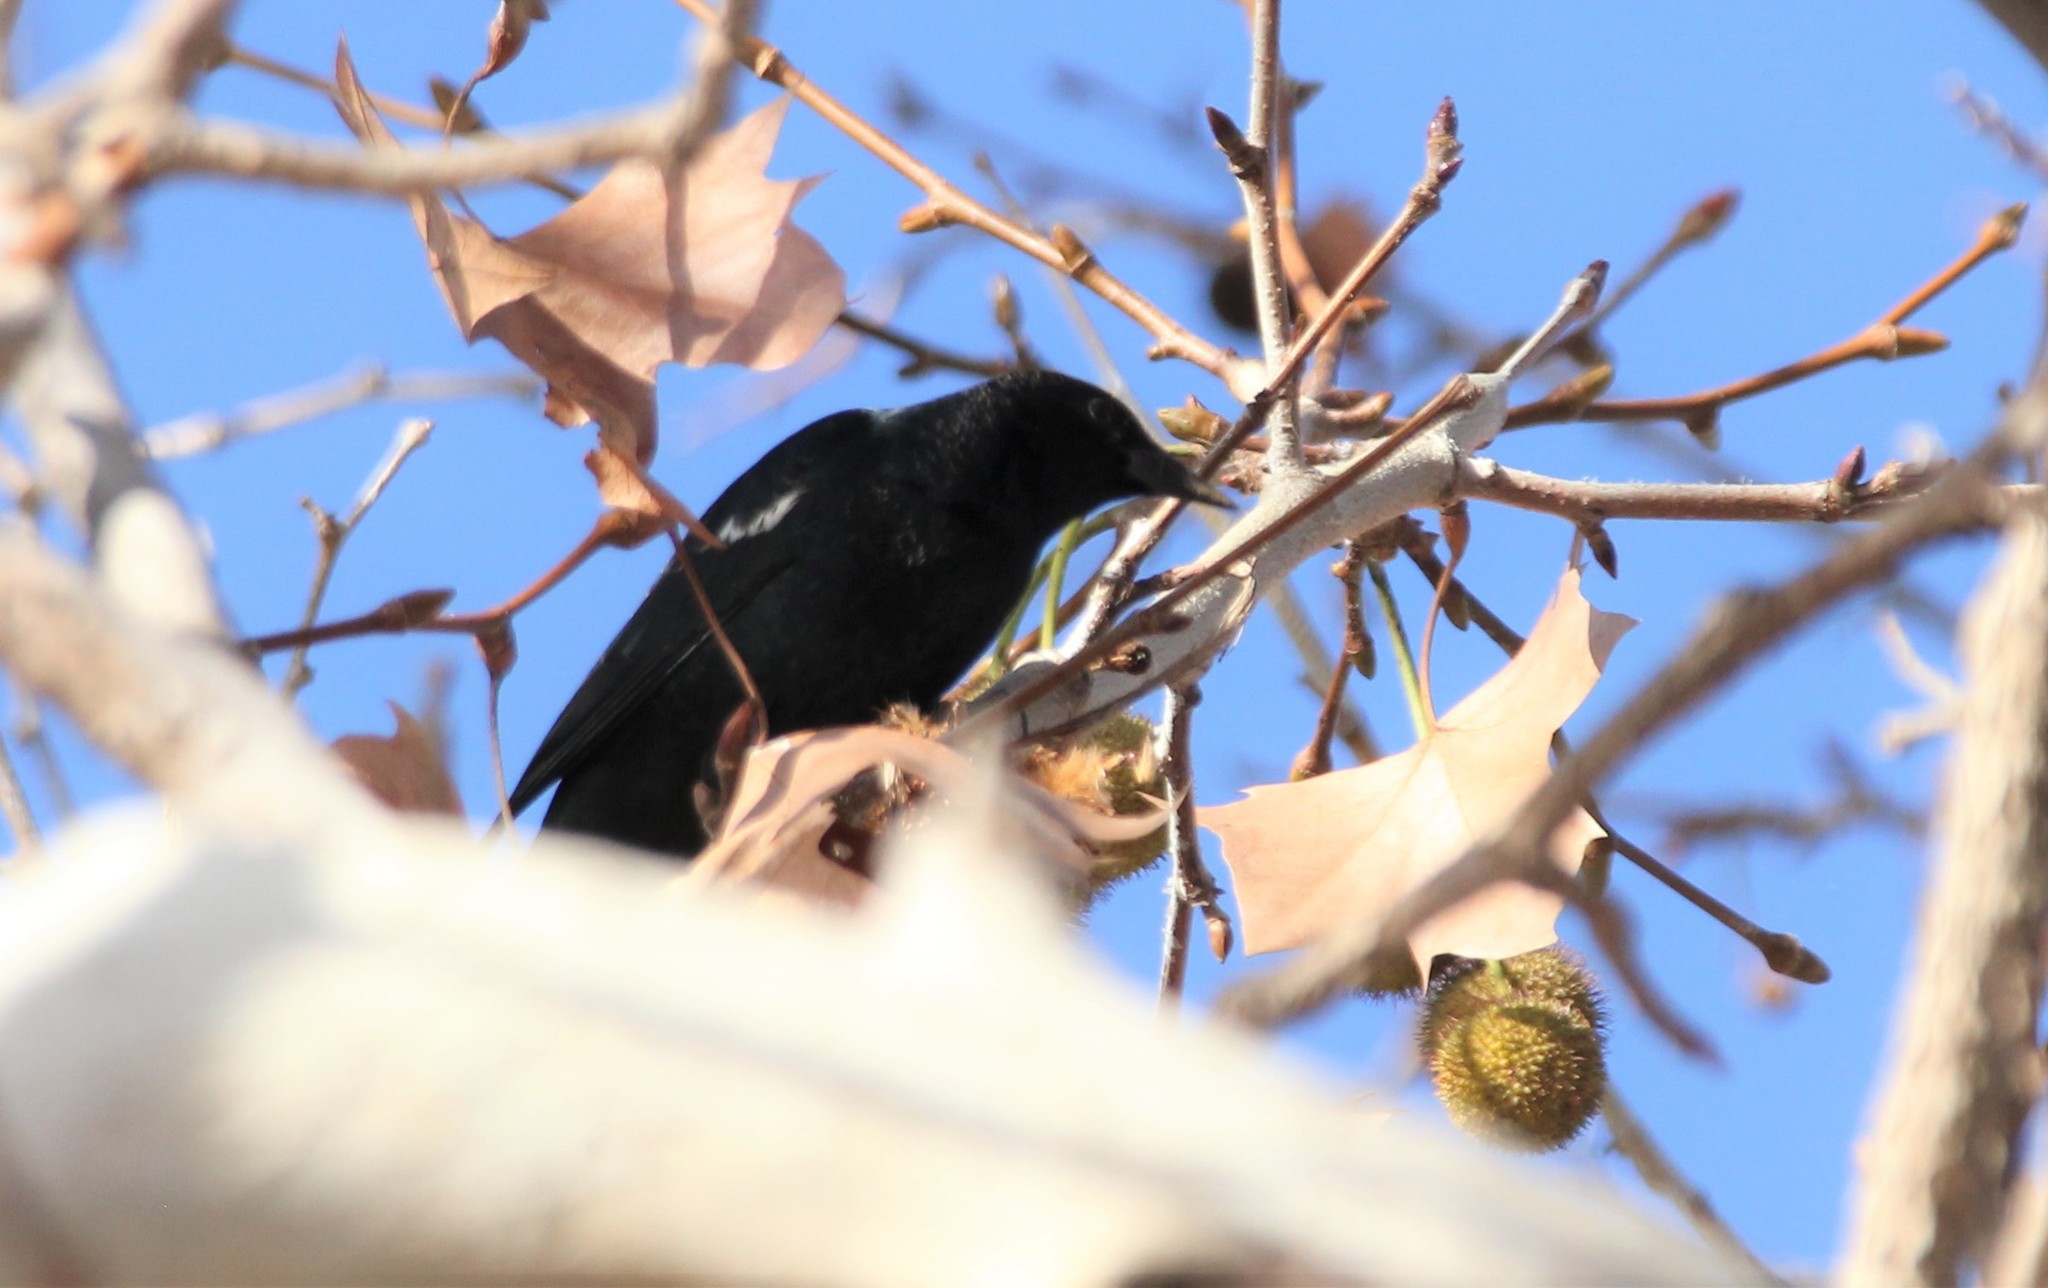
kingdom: Animalia
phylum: Chordata
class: Aves
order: Passeriformes
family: Icteridae
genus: Agelaius
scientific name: Agelaius tricolor
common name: Tricolored blackbird
